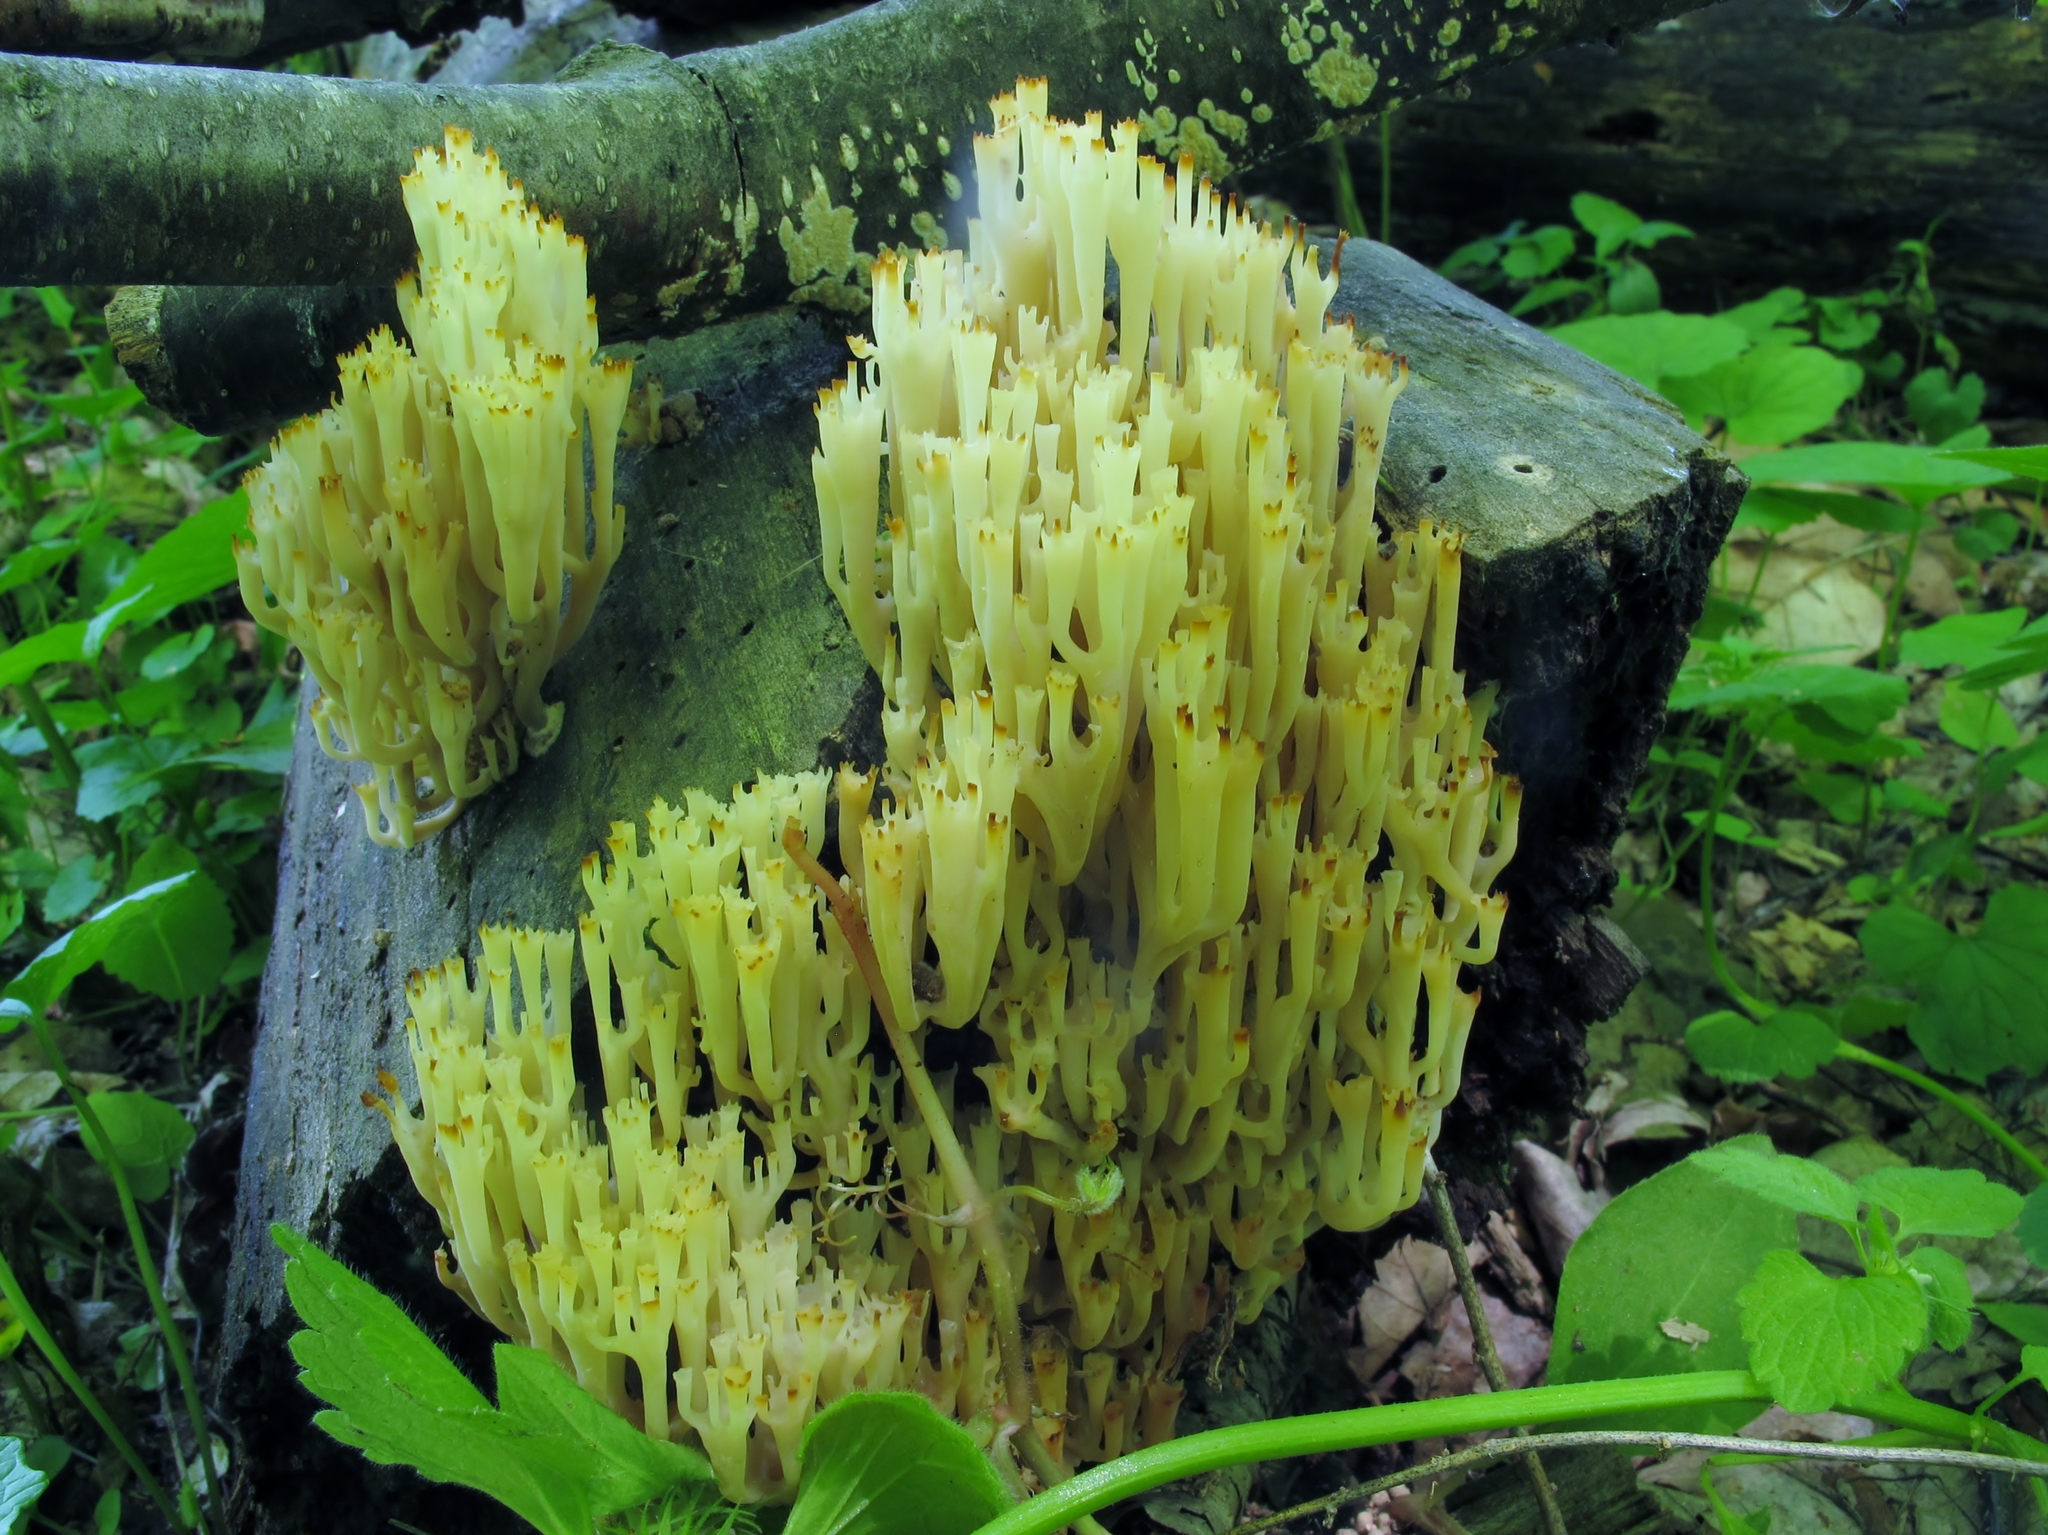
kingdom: Fungi
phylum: Basidiomycota
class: Agaricomycetes
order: Russulales
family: Auriscalpiaceae
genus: Artomyces
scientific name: Artomyces pyxidatus
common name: Crown-tipped coral fungus
